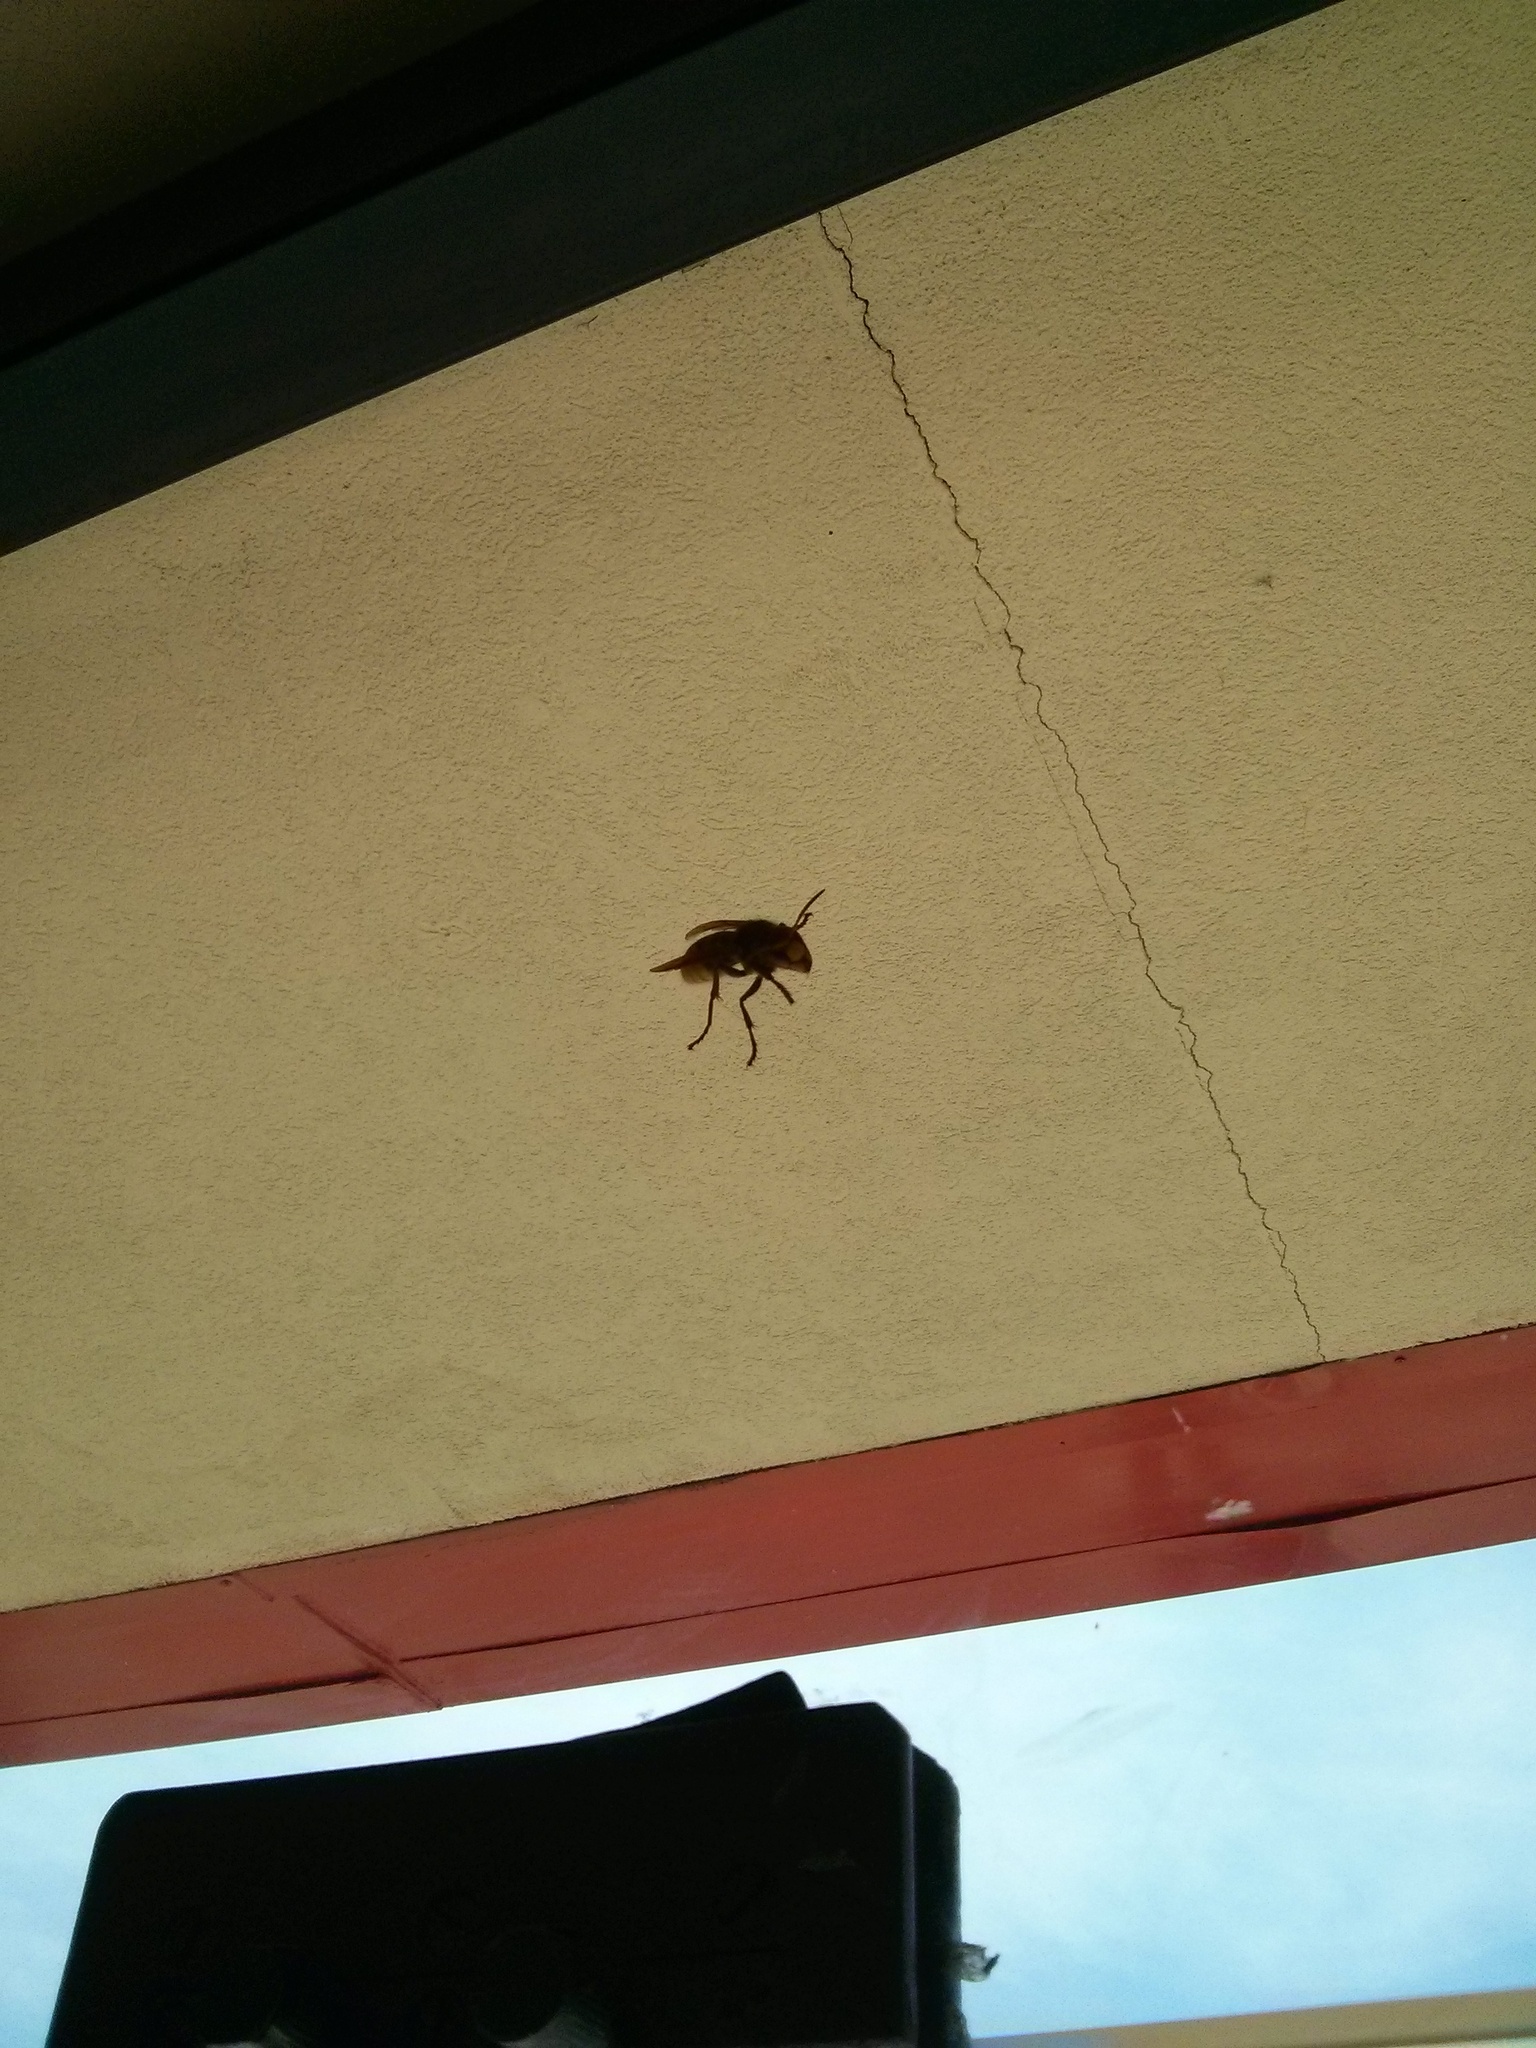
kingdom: Animalia
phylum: Arthropoda
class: Insecta
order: Hymenoptera
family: Vespidae
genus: Vespa
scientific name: Vespa crabro
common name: Hornet
